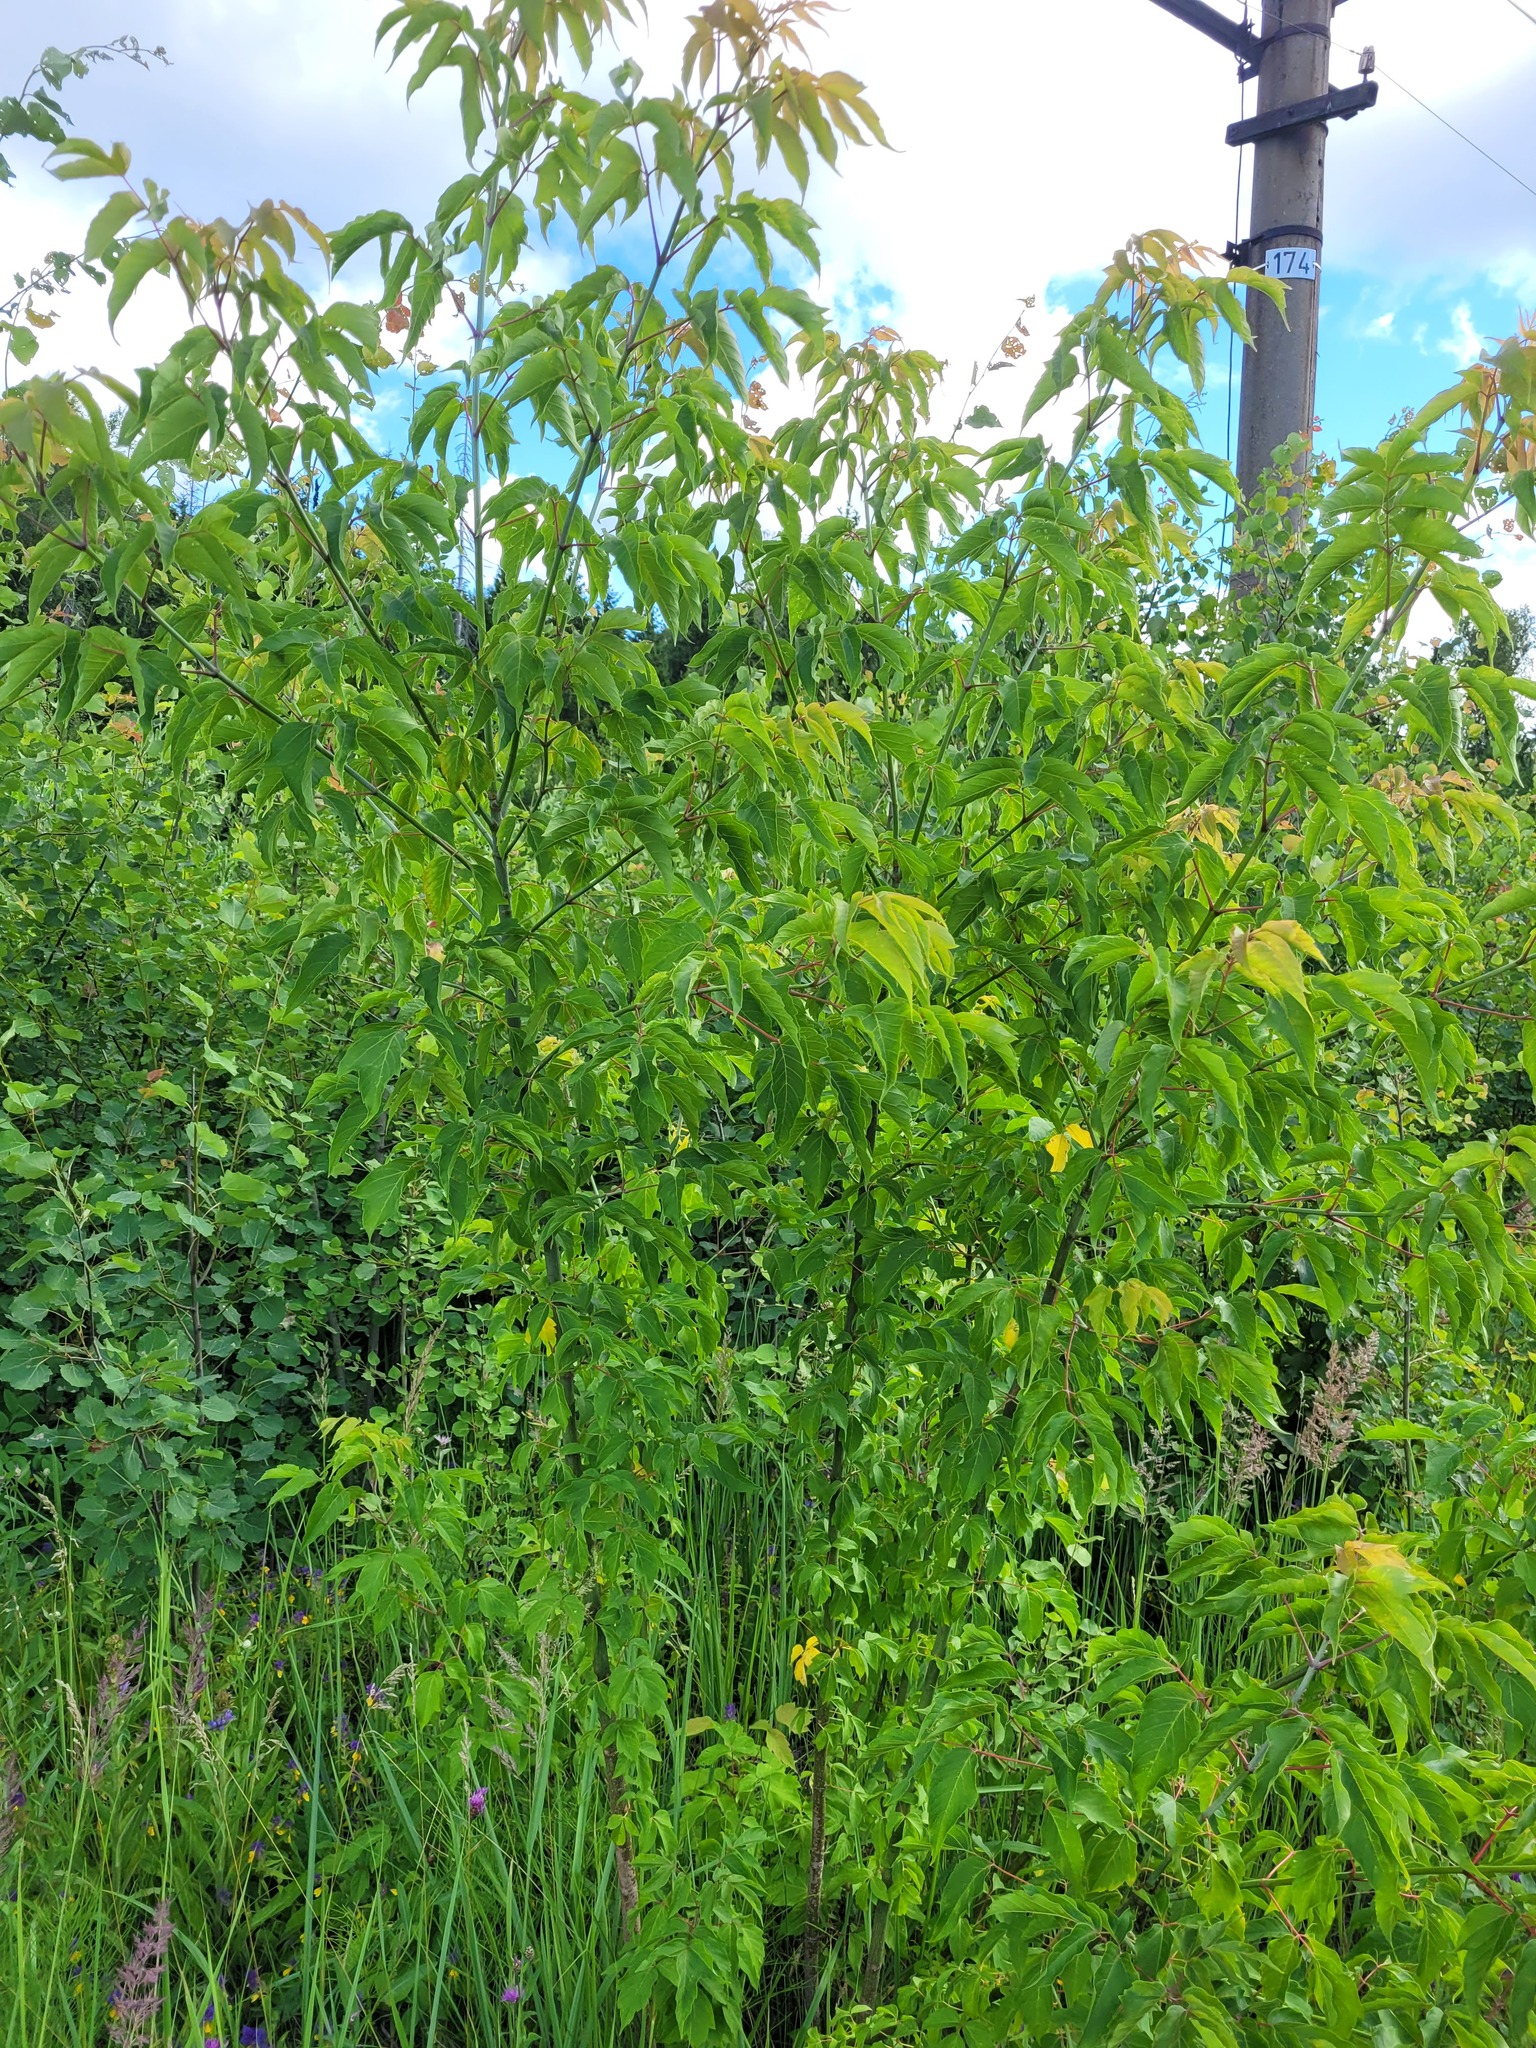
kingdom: Plantae
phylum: Tracheophyta
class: Magnoliopsida
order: Sapindales
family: Sapindaceae
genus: Acer
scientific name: Acer negundo
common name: Ashleaf maple
